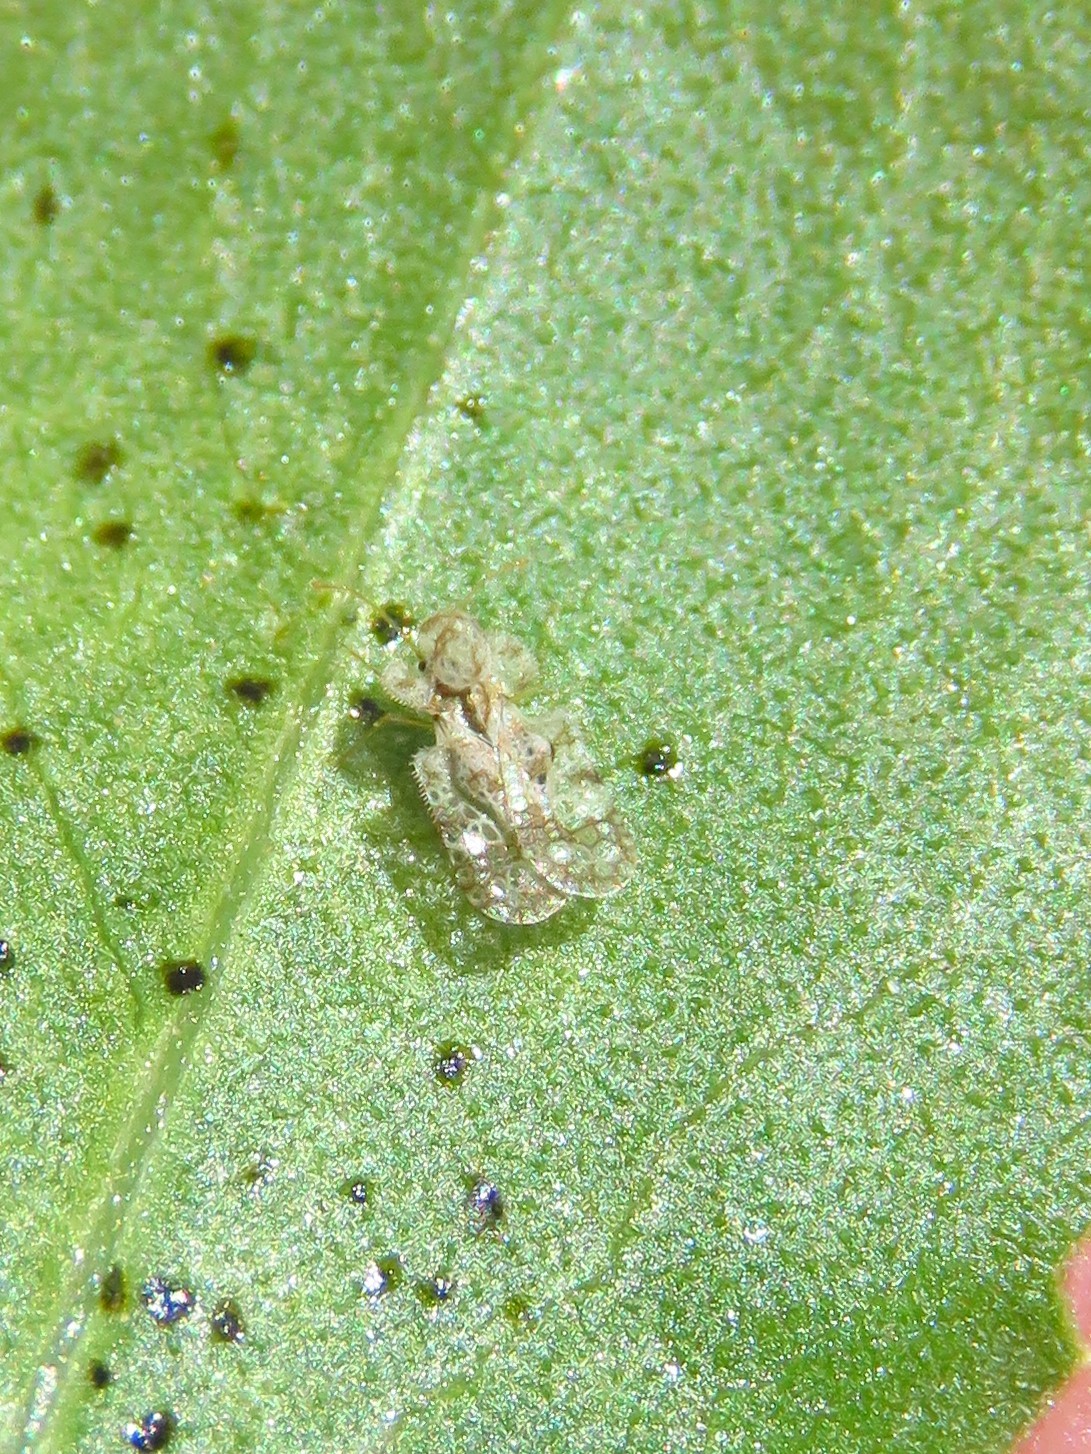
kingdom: Animalia
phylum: Arthropoda
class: Insecta
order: Hemiptera
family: Tingidae
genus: Corythucha
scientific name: Corythucha marmorata
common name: Chrysanthemum lace bug
